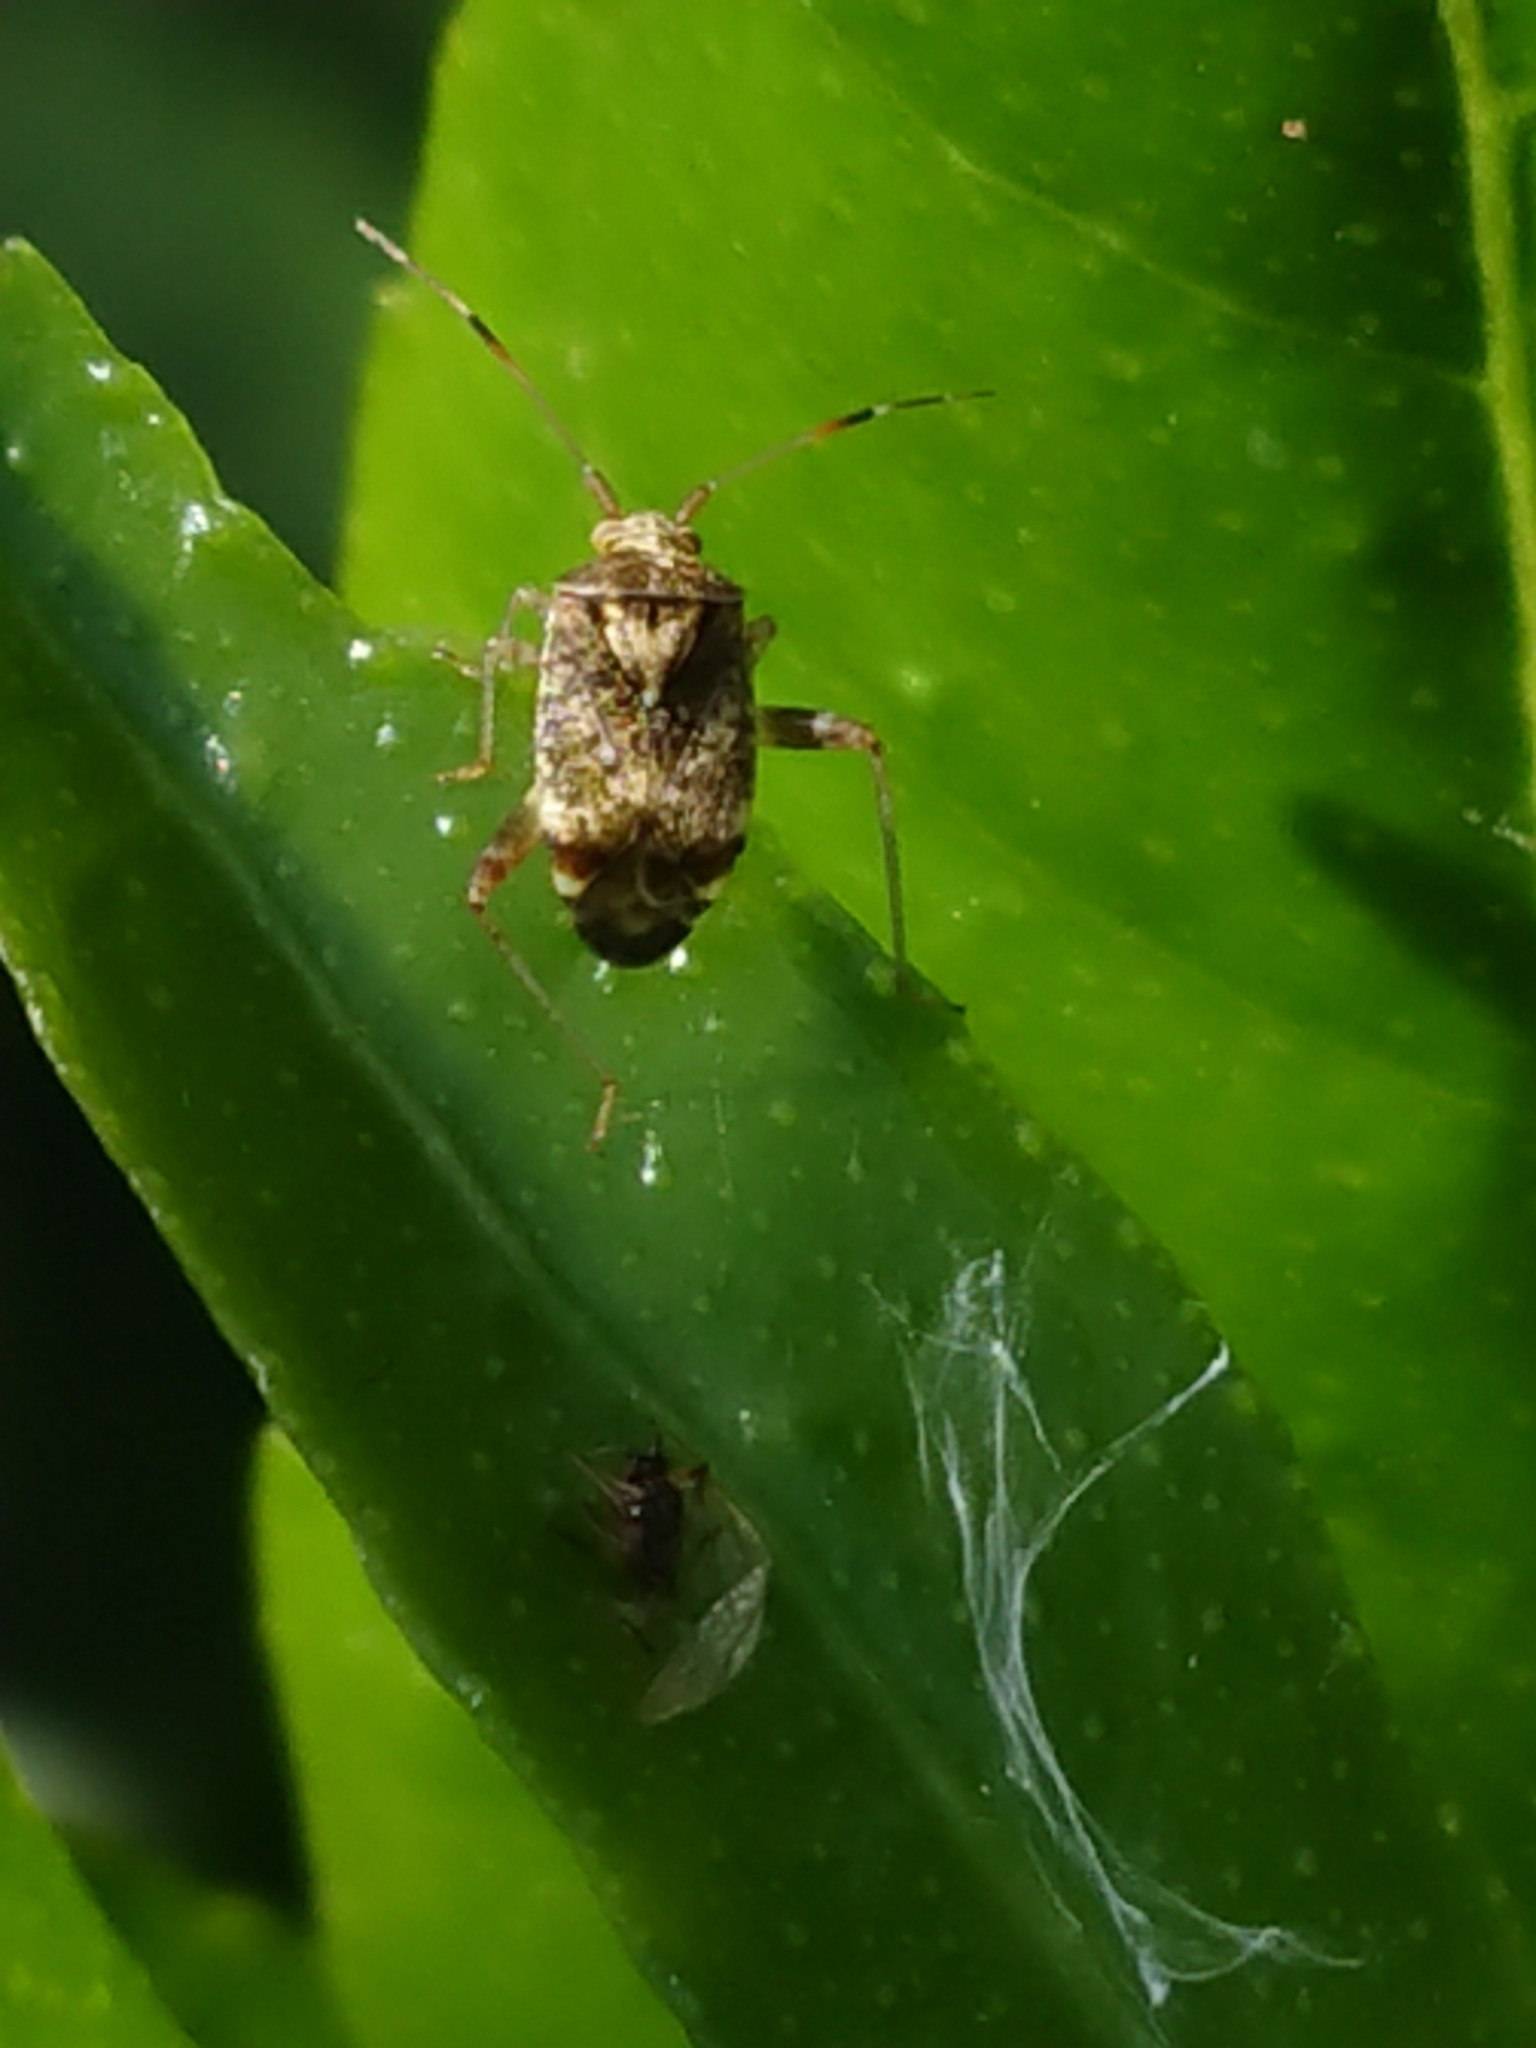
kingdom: Animalia
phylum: Arthropoda
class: Insecta
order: Hemiptera
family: Miridae
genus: Sidnia
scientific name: Sidnia kinbergi
